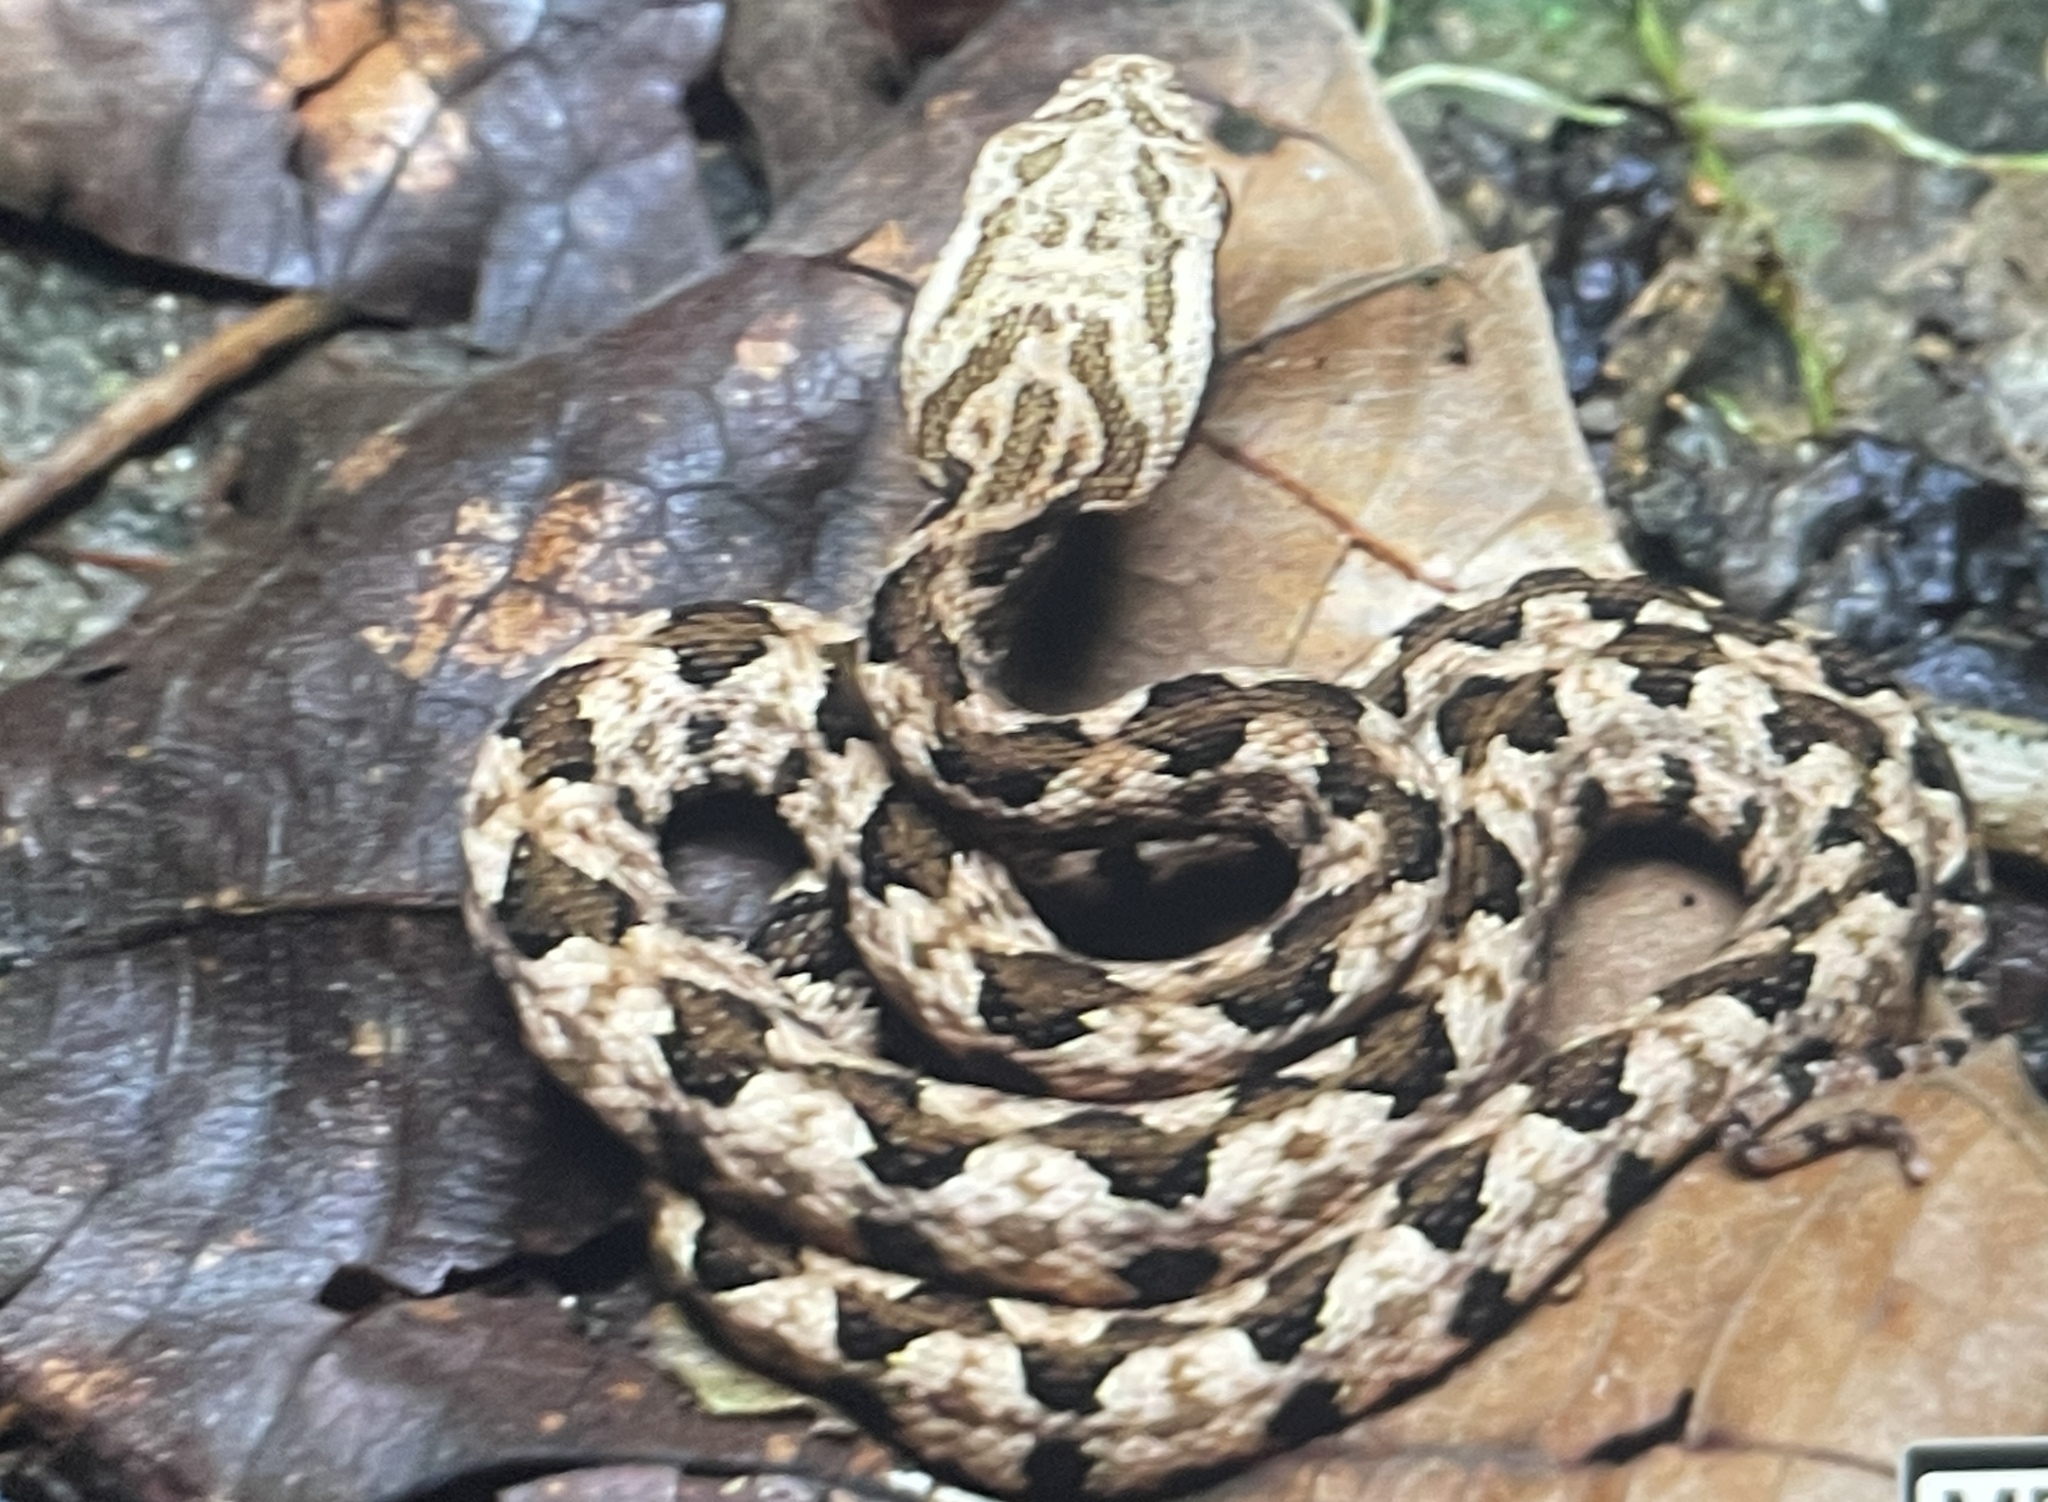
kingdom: Animalia
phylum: Chordata
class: Squamata
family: Viperidae
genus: Protobothrops
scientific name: Protobothrops mucrosquamatus
